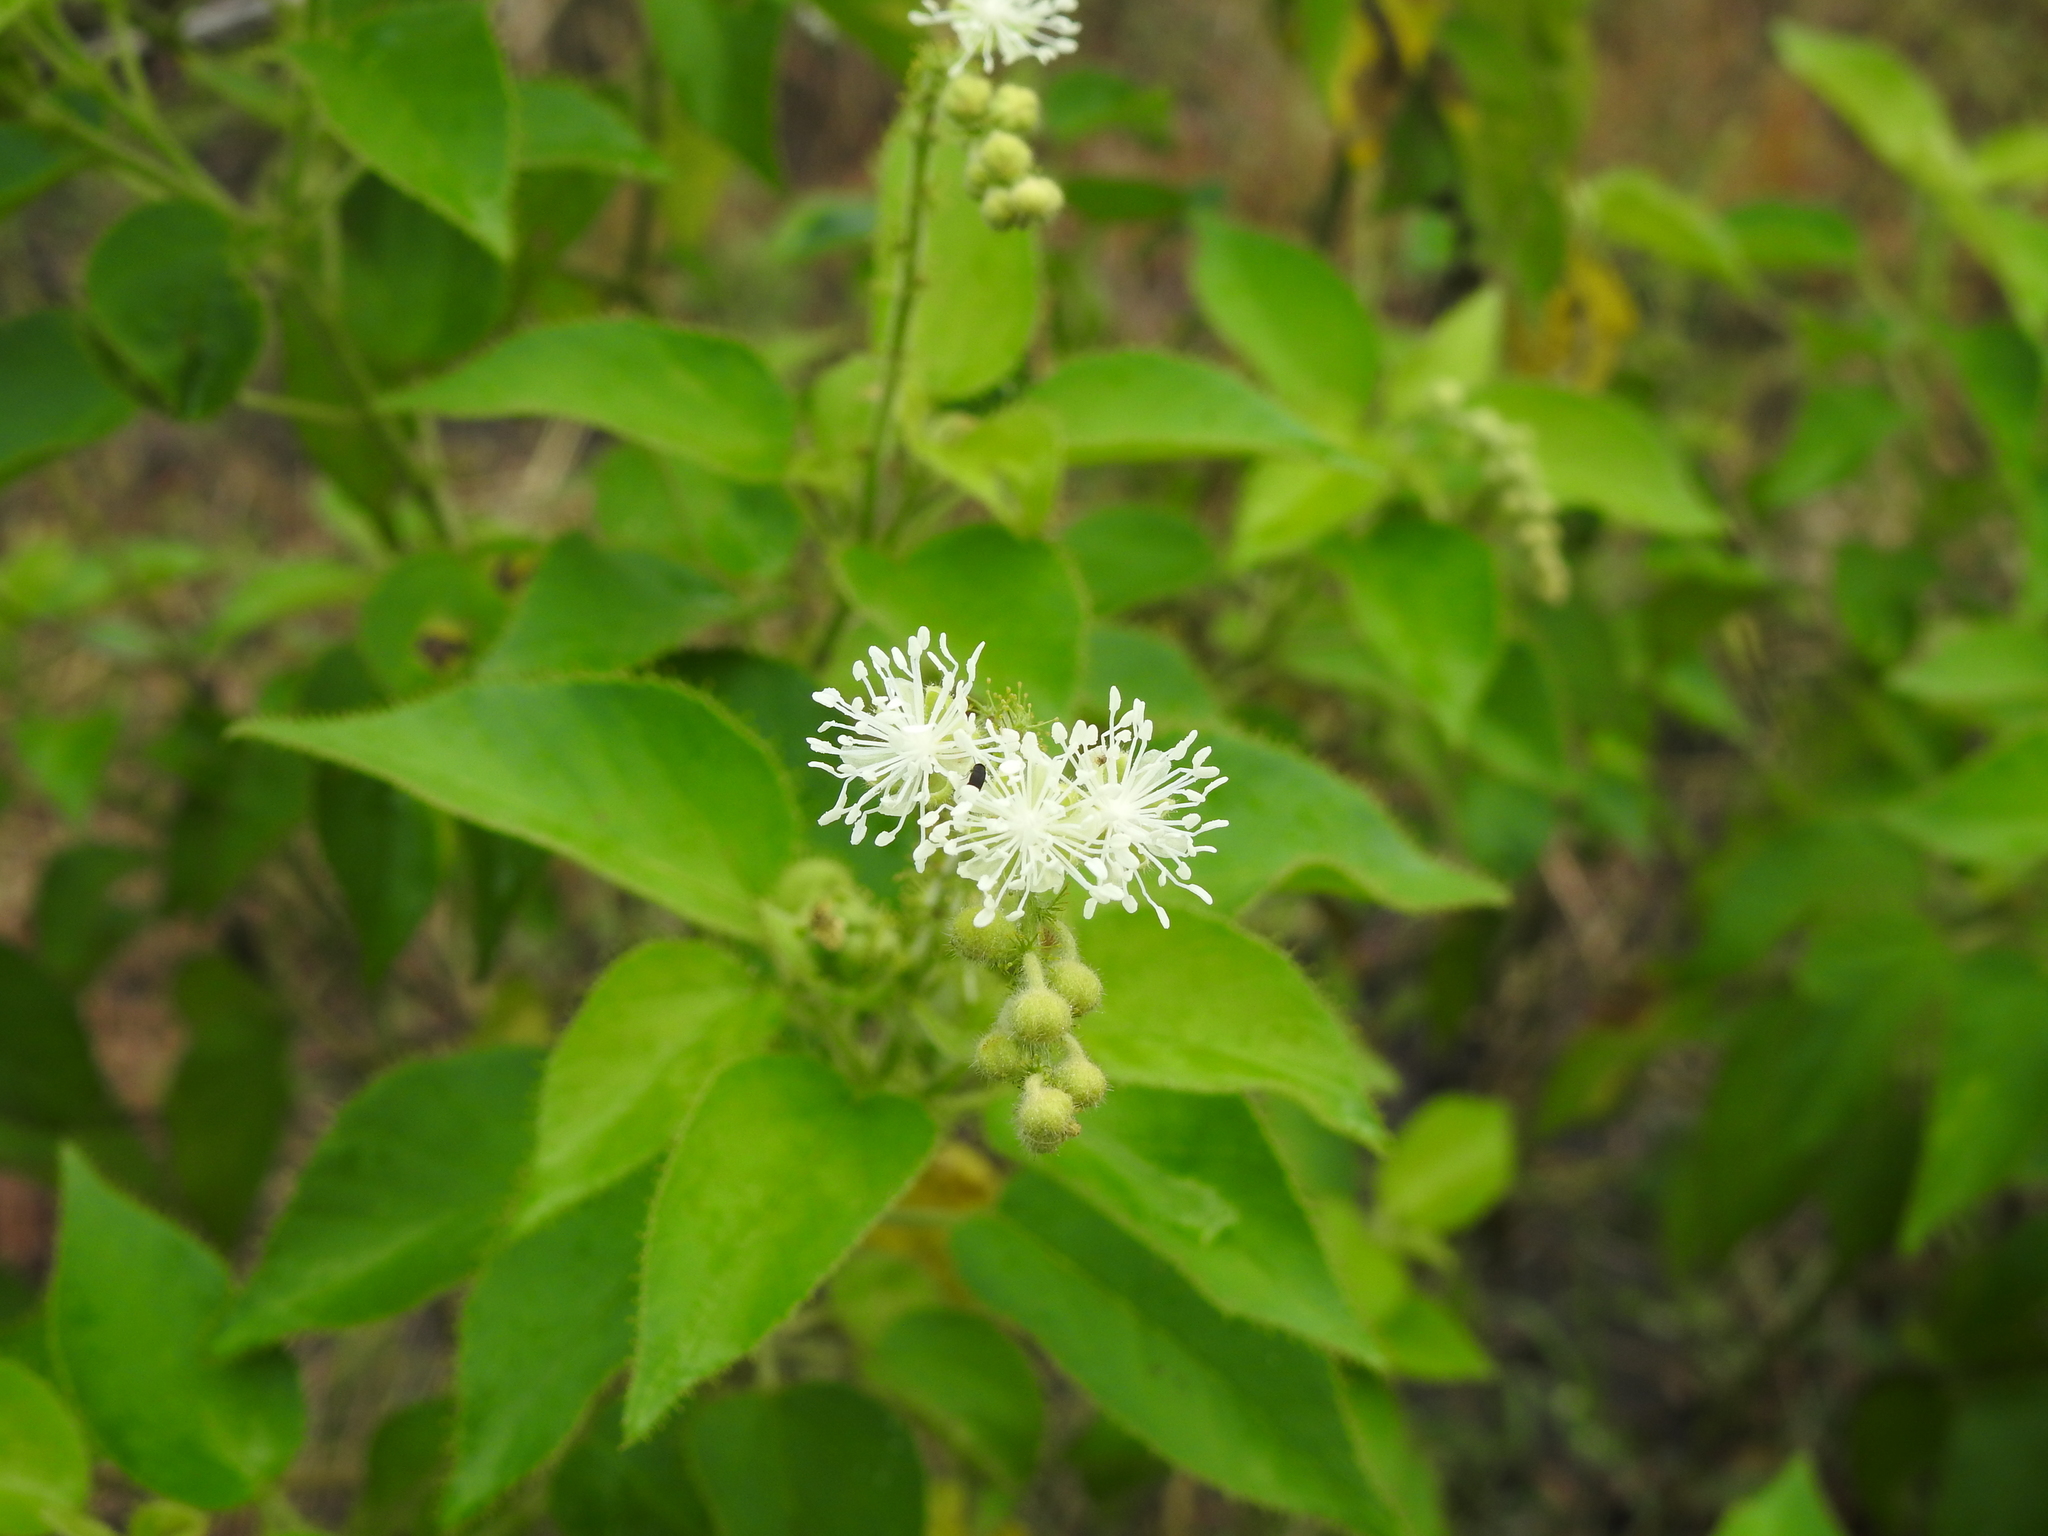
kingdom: Plantae
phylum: Tracheophyta
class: Magnoliopsida
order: Malpighiales
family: Euphorbiaceae
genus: Croton
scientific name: Croton ciliatoglandulifer
